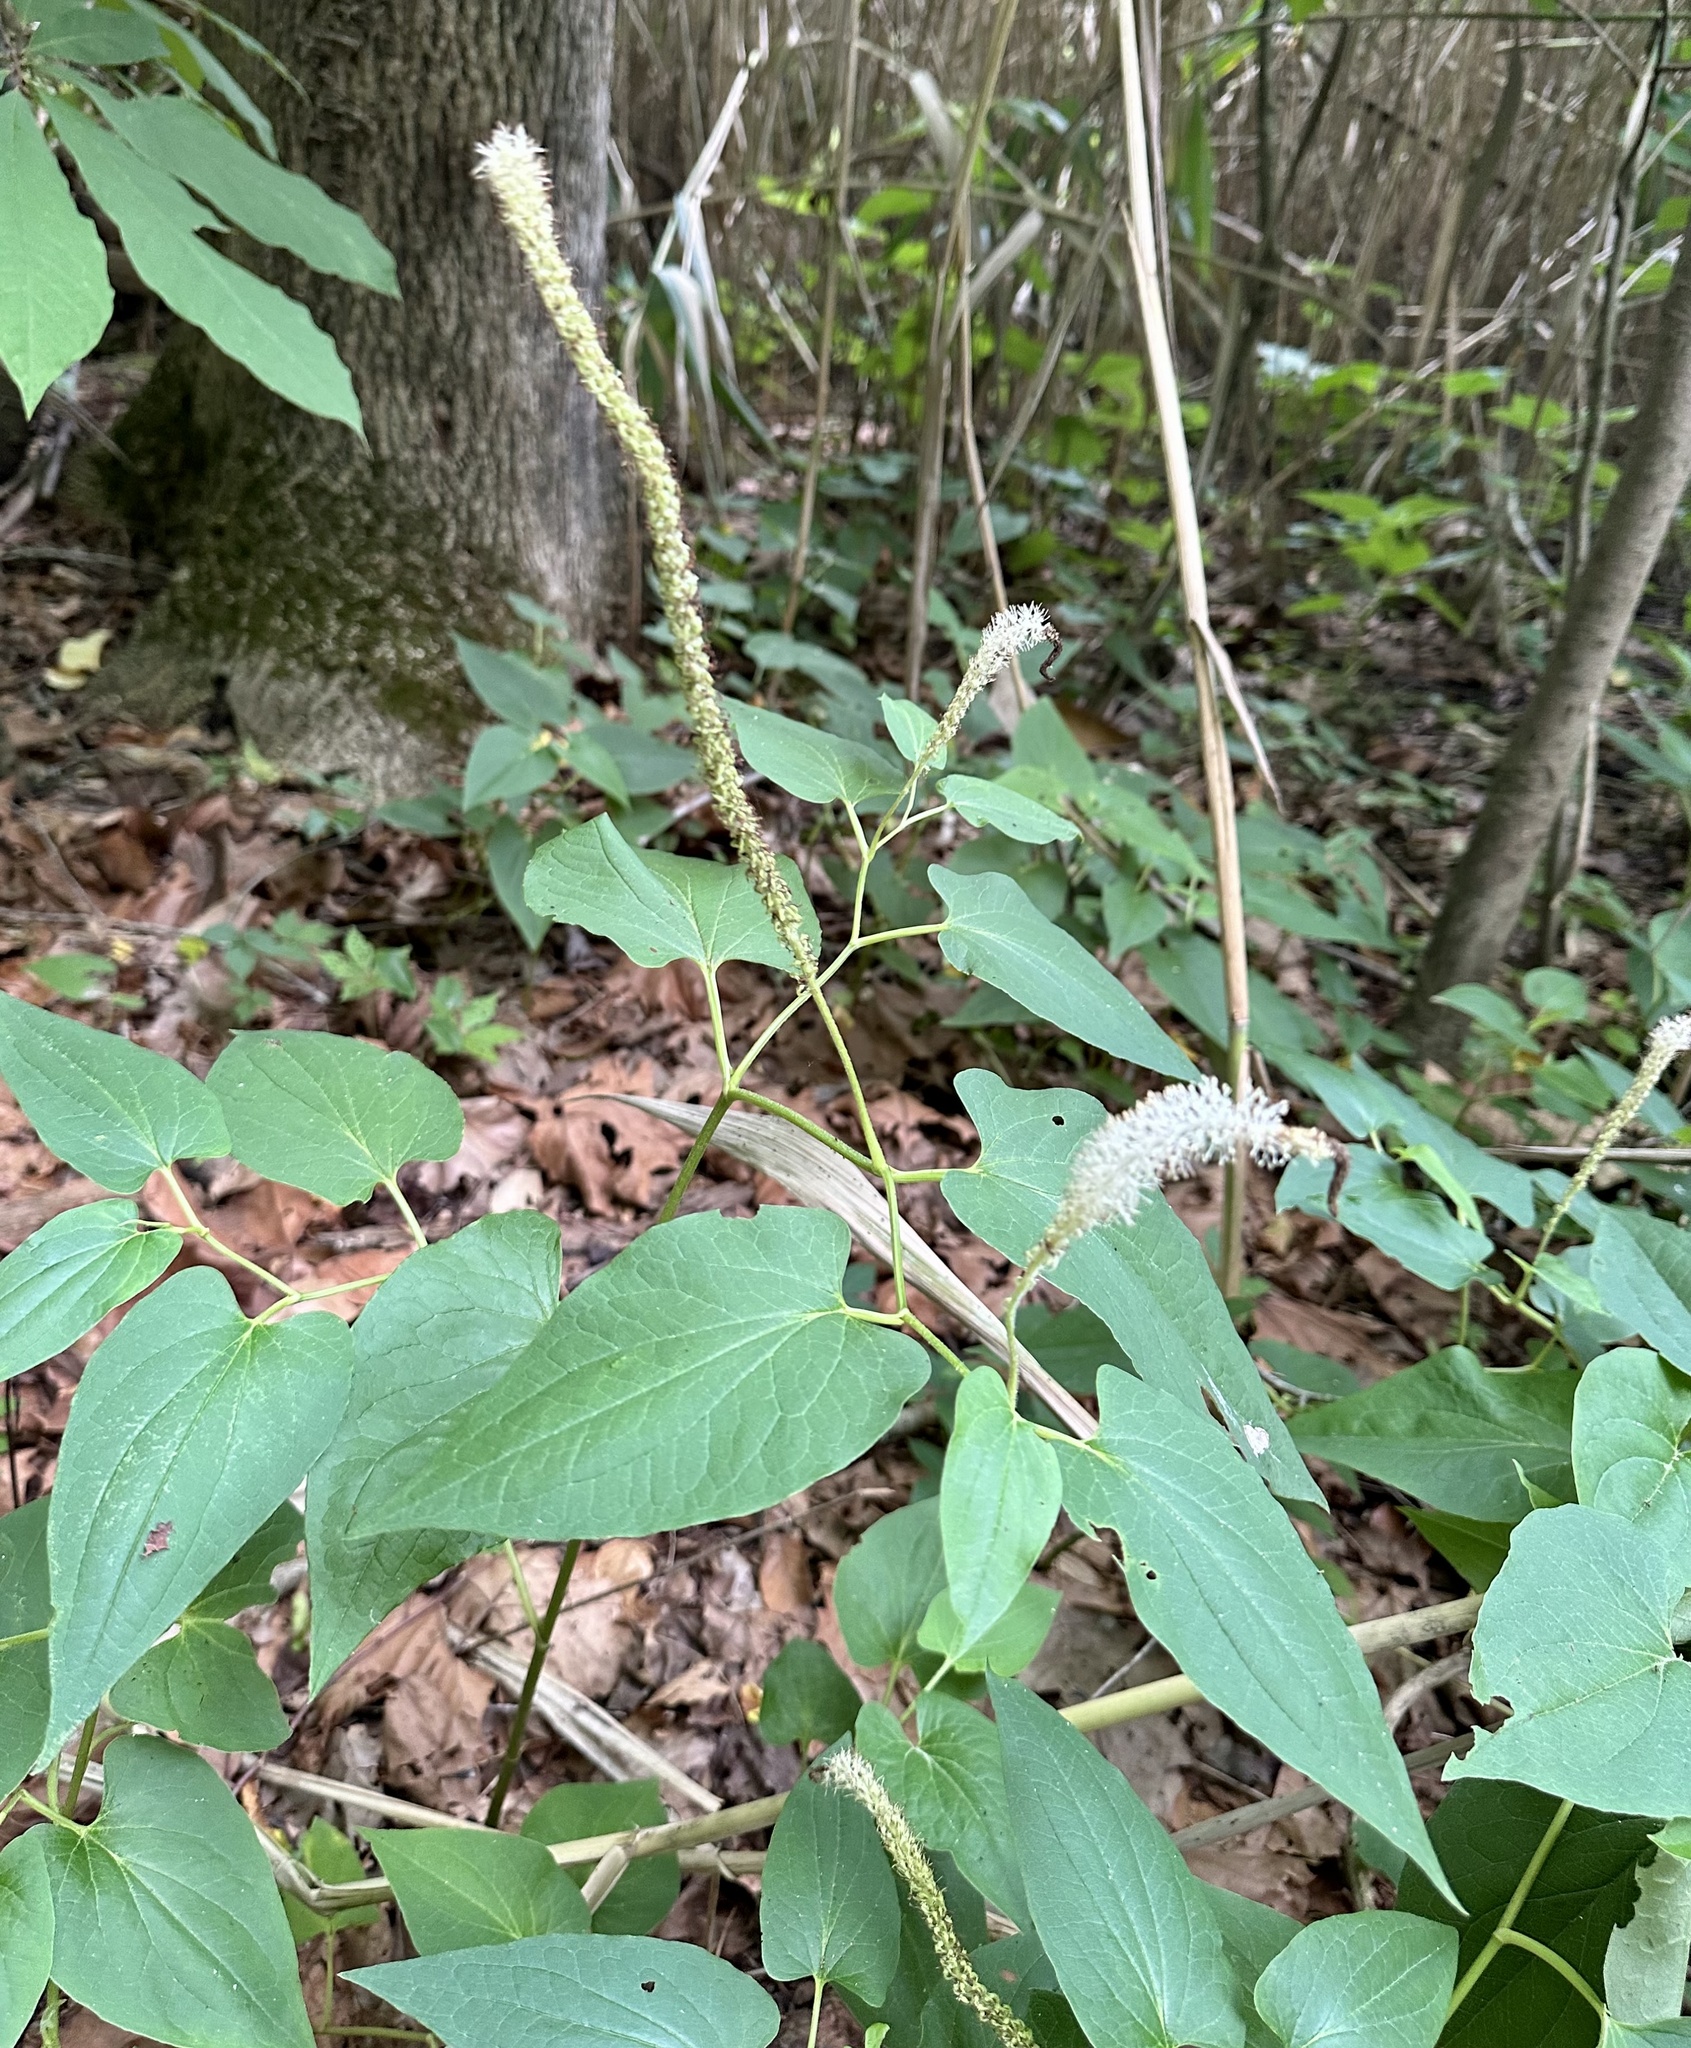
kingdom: Plantae
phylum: Tracheophyta
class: Magnoliopsida
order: Piperales
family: Saururaceae
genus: Saururus
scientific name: Saururus cernuus
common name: Lizard's-tail
